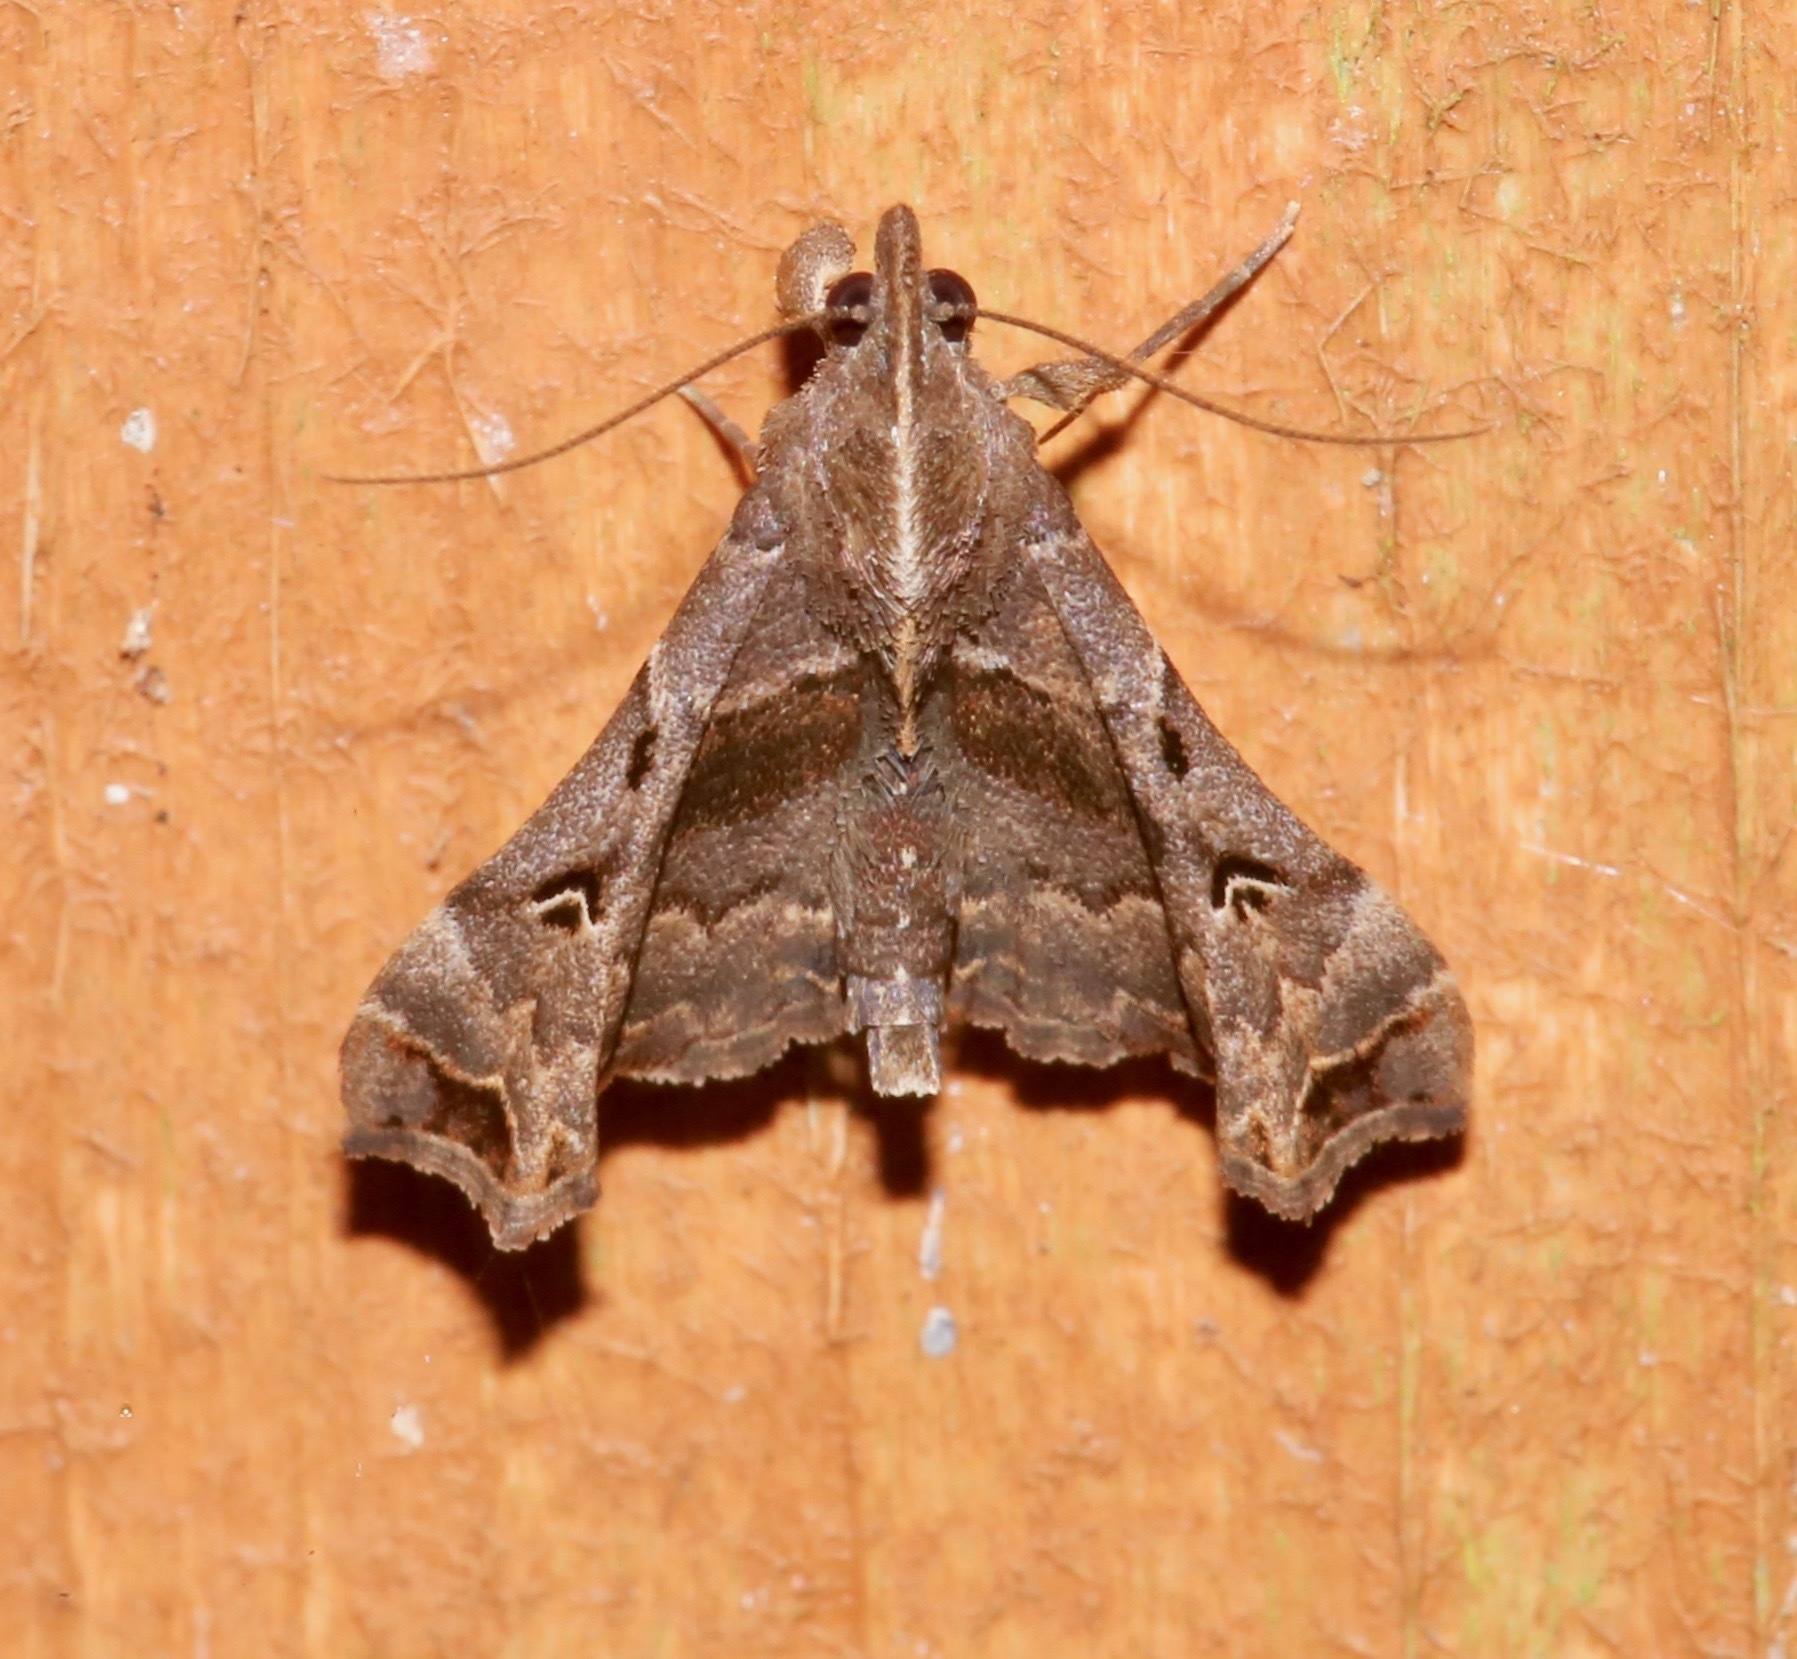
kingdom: Animalia
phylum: Arthropoda
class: Insecta
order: Lepidoptera
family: Erebidae
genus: Palthis
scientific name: Palthis asopialis
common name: Faint-spotted palthis moth
